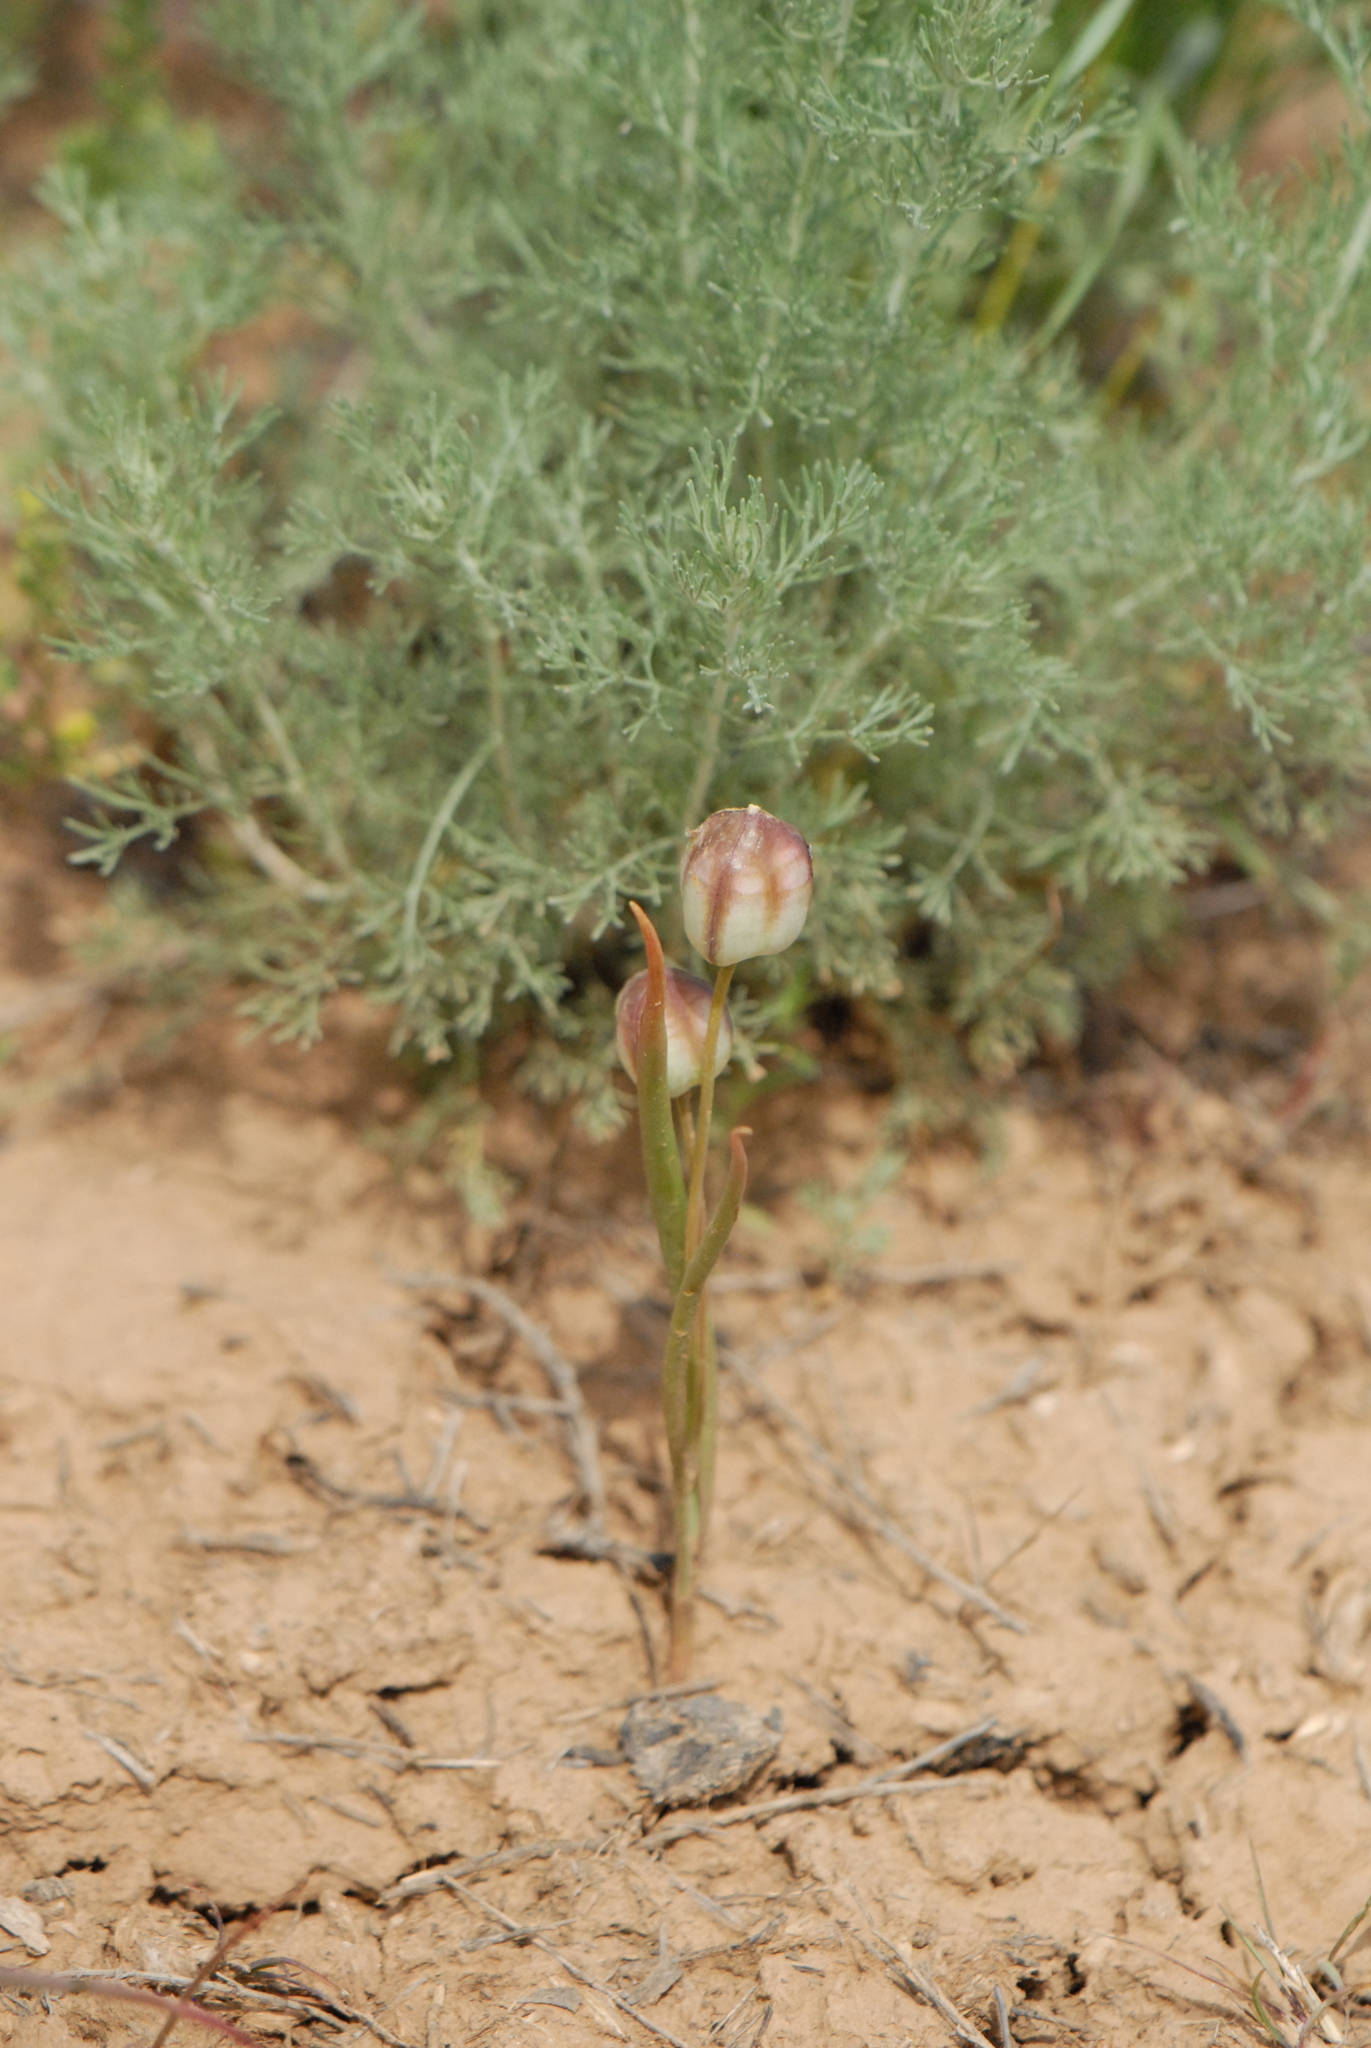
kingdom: Plantae
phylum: Tracheophyta
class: Liliopsida
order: Liliales
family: Liliaceae
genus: Tulipa
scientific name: Tulipa biflora
